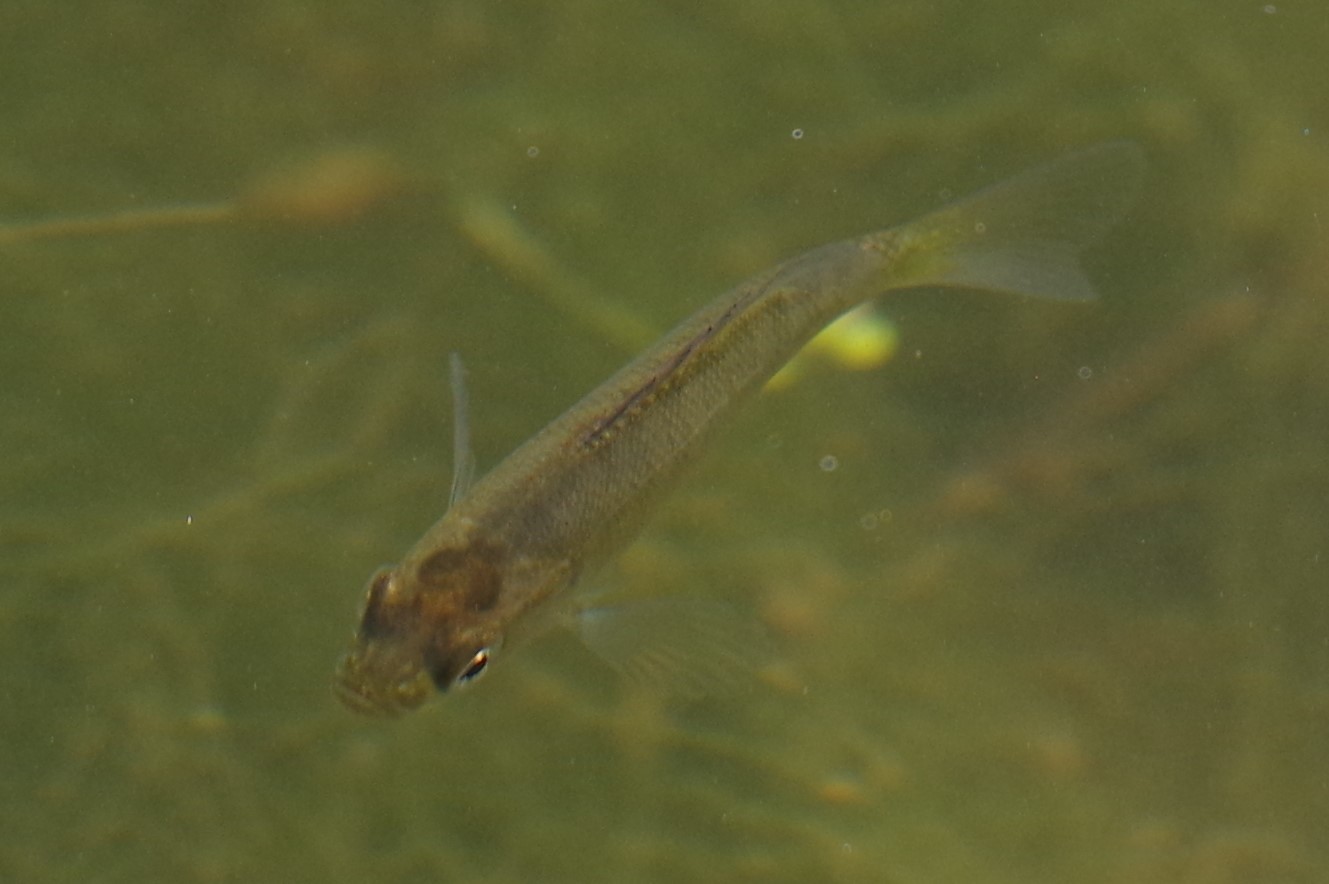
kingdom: Animalia
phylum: Chordata
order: Perciformes
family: Centrarchidae
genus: Lepomis
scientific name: Lepomis
